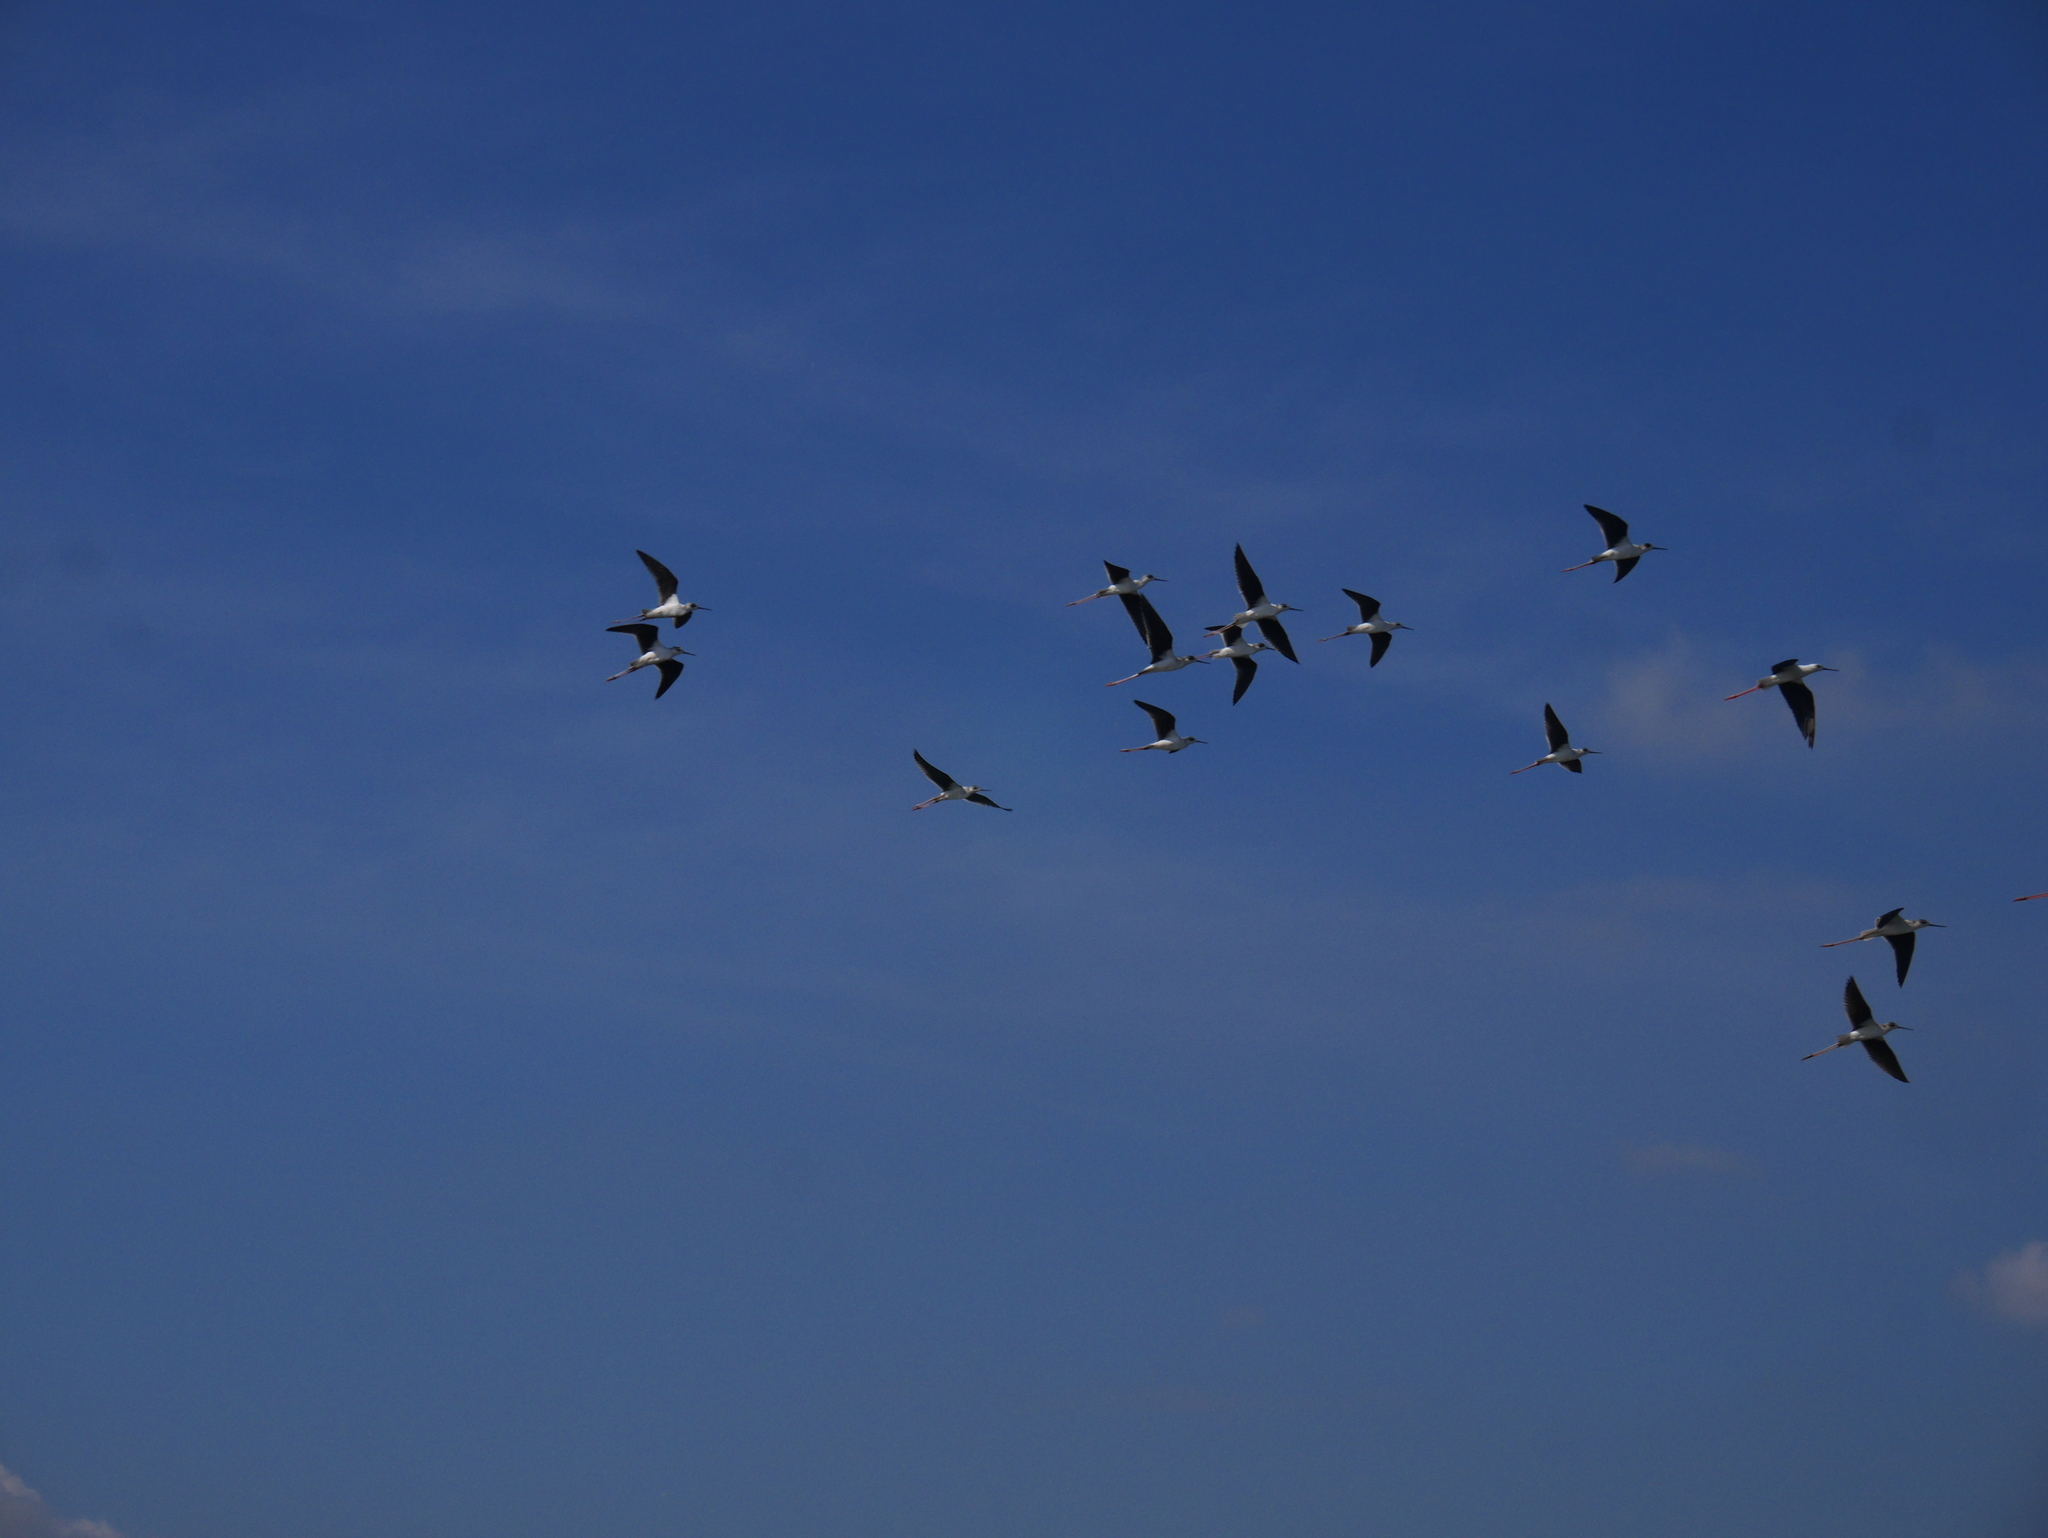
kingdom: Animalia
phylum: Chordata
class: Aves
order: Charadriiformes
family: Recurvirostridae
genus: Himantopus
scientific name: Himantopus himantopus
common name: Black-winged stilt
